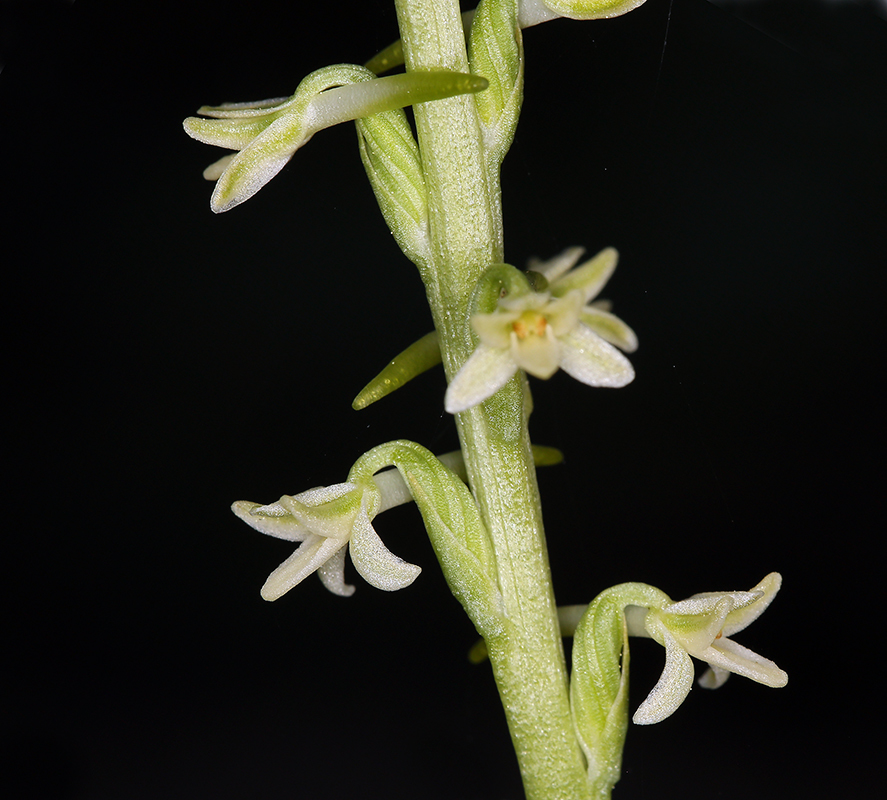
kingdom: Plantae
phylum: Tracheophyta
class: Liliopsida
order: Asparagales
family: Orchidaceae
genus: Platanthera
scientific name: Platanthera transversa
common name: Royal rein orchid
